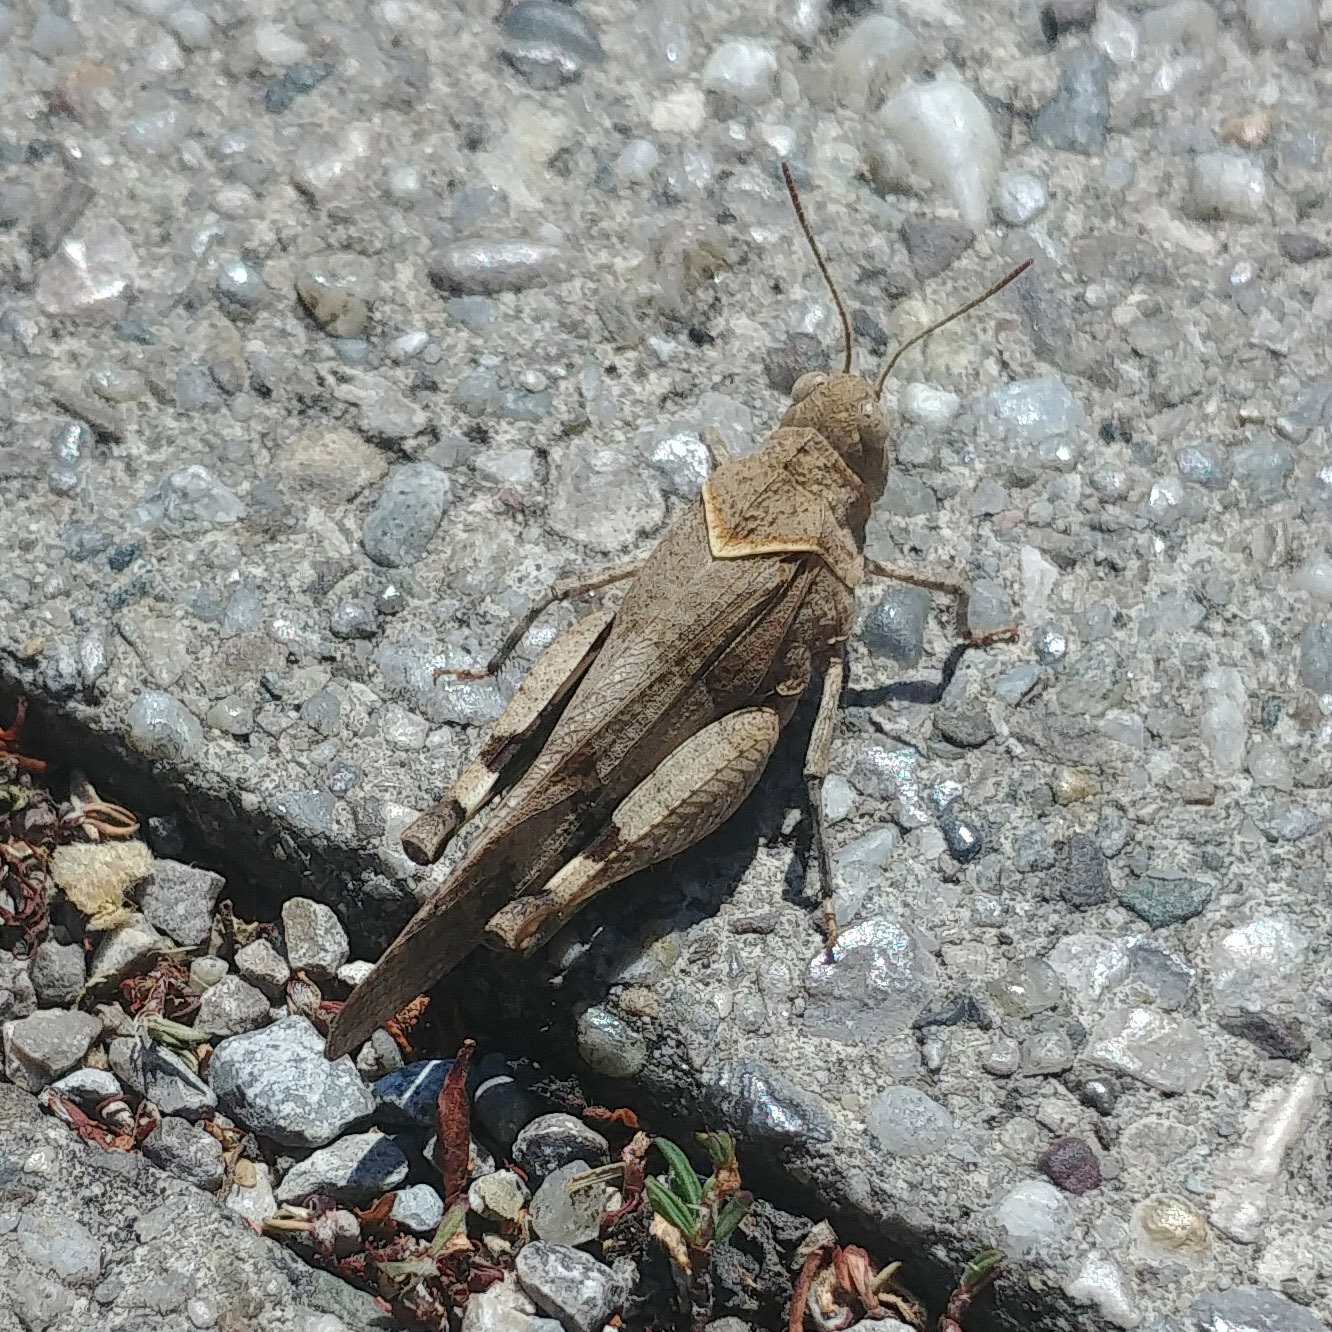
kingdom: Animalia
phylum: Arthropoda
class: Insecta
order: Orthoptera
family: Acrididae
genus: Oedipoda
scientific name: Oedipoda caerulescens
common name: Blue-winged grasshopper
